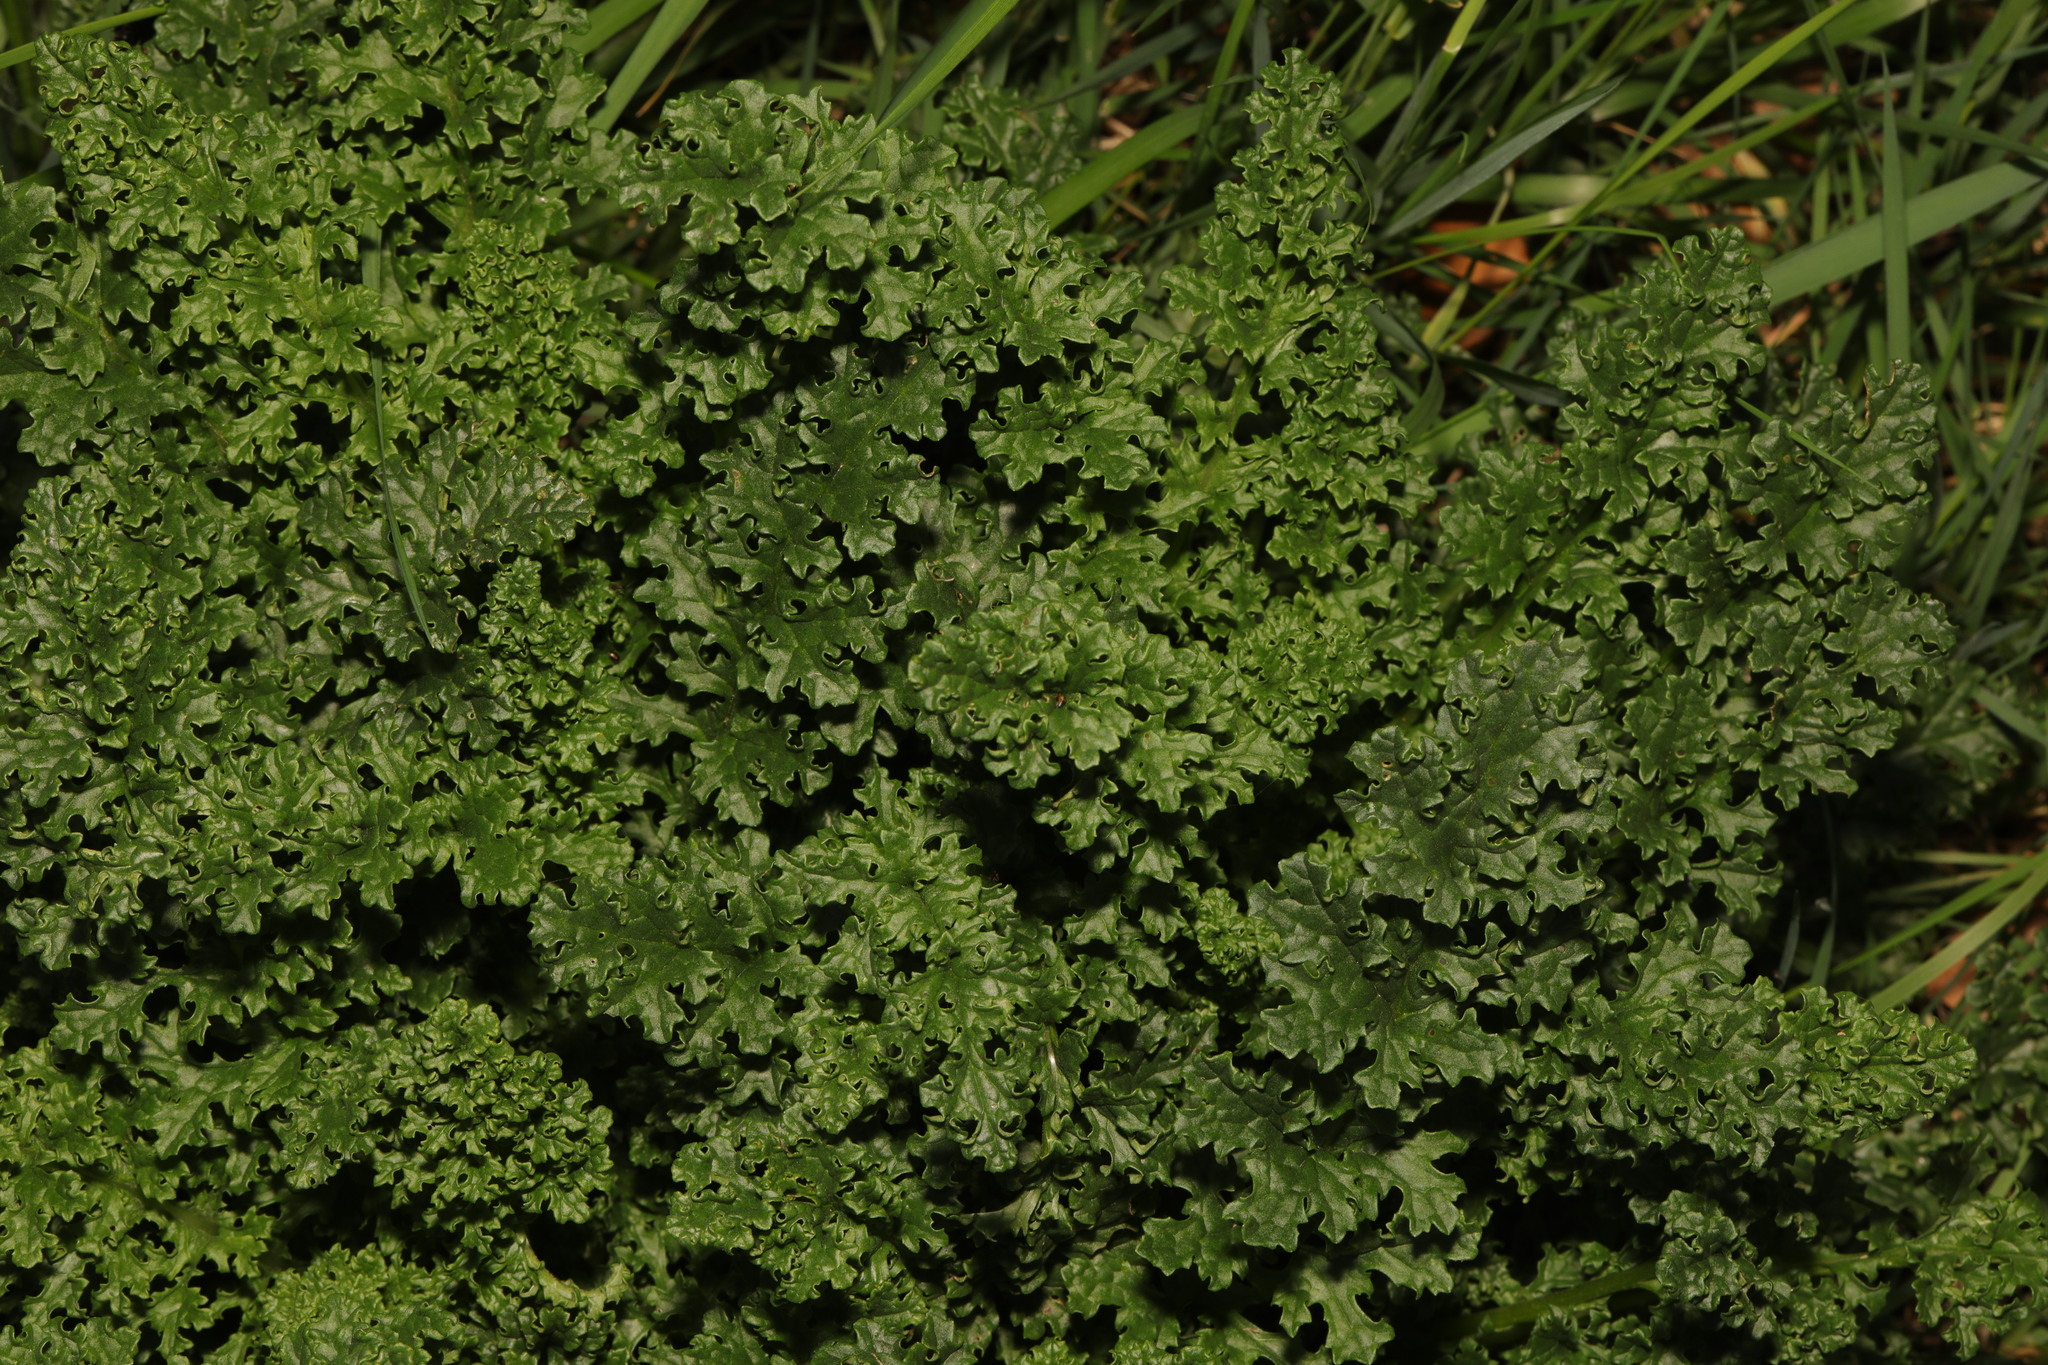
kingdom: Plantae
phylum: Tracheophyta
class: Magnoliopsida
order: Asterales
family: Asteraceae
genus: Jacobaea
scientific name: Jacobaea vulgaris
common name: Stinking willie
